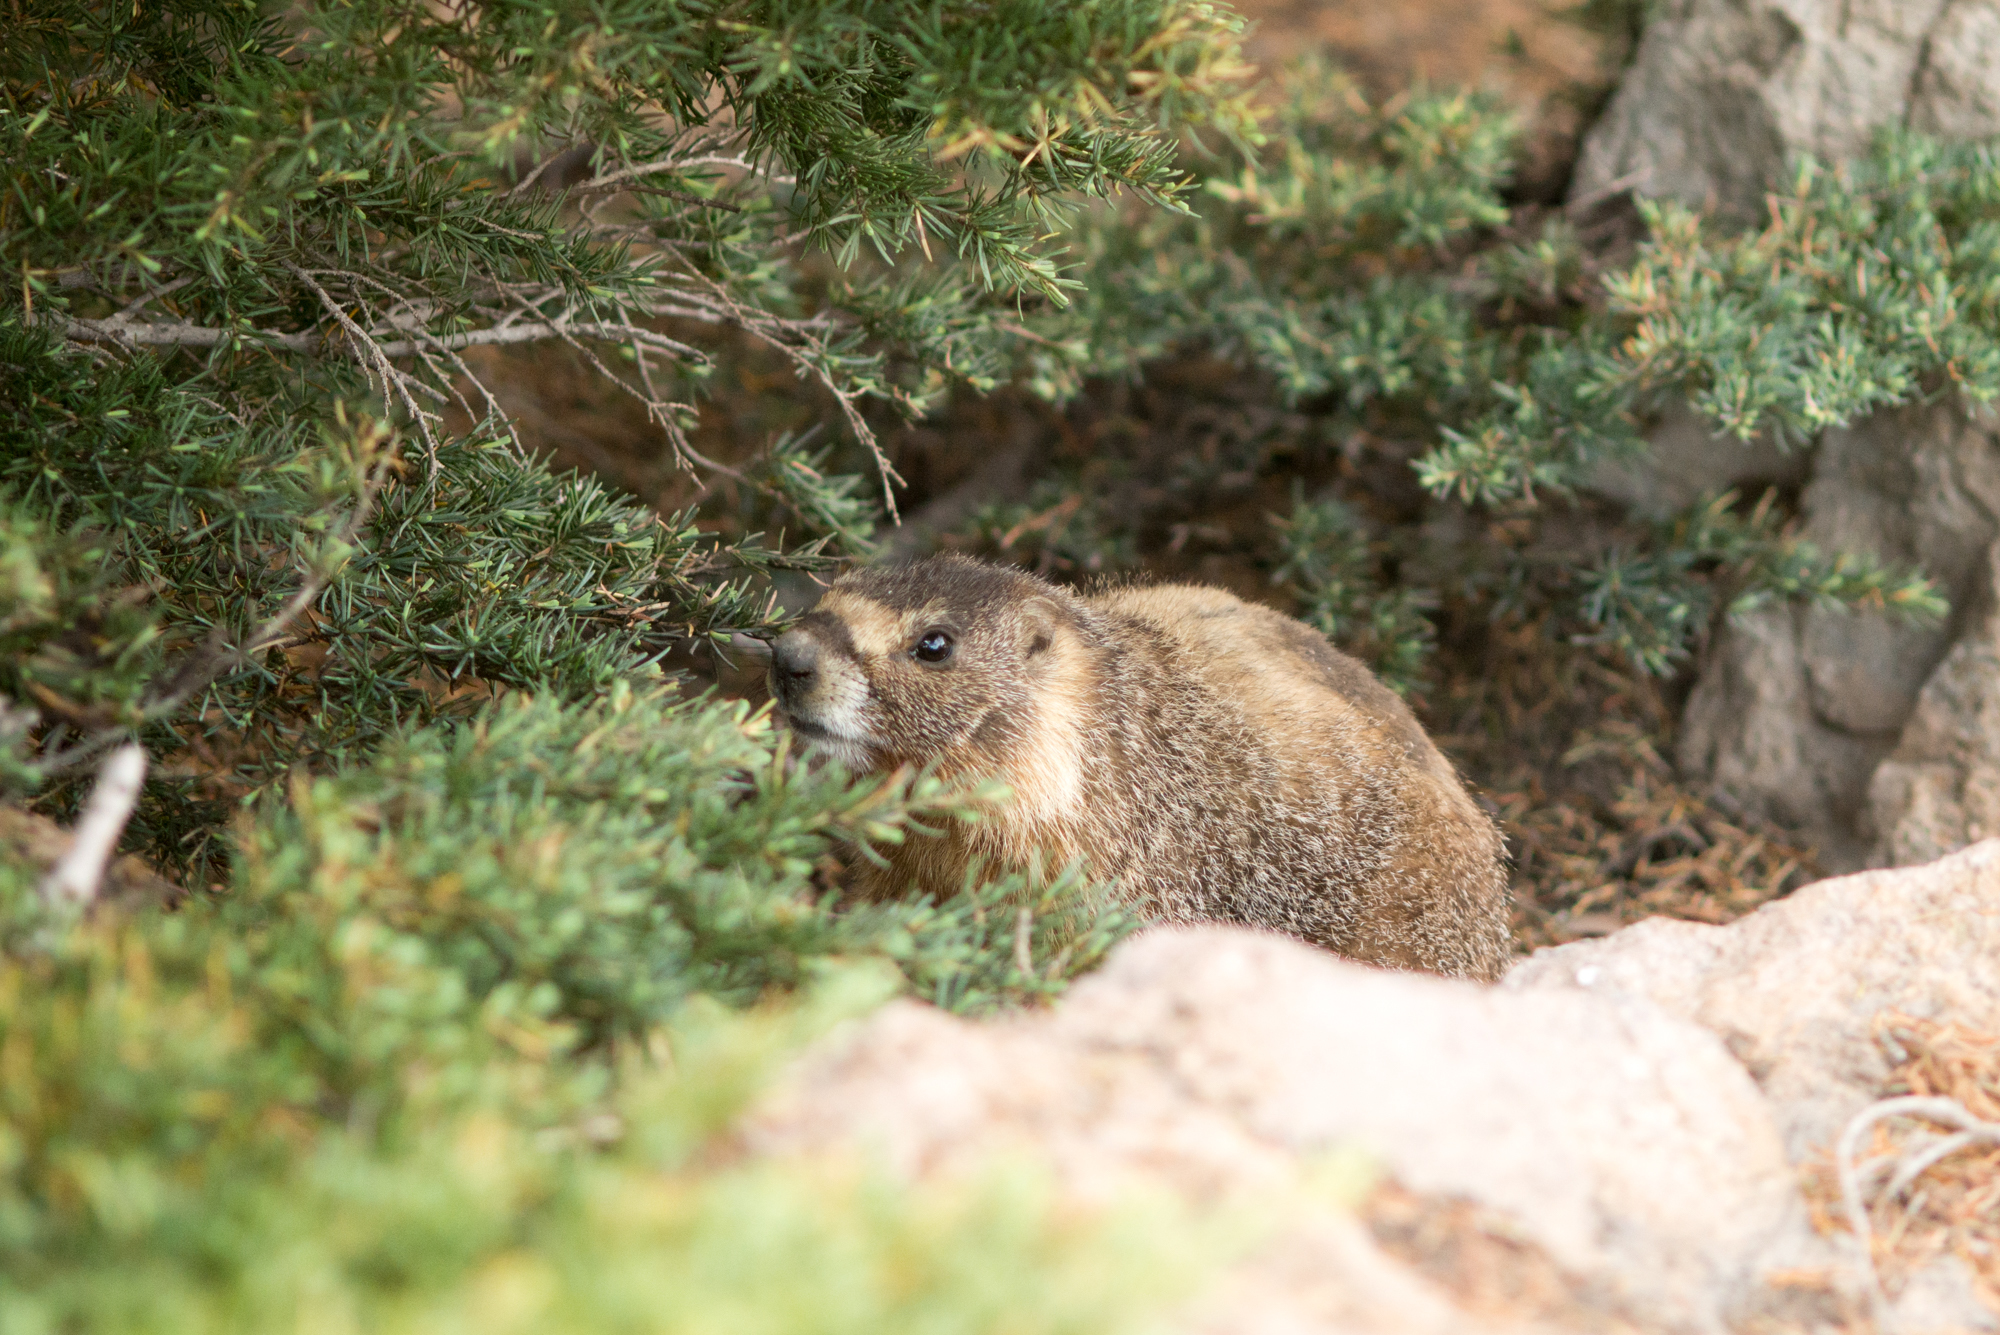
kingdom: Animalia
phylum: Chordata
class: Mammalia
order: Rodentia
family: Sciuridae
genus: Marmota
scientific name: Marmota flaviventris
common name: Yellow-bellied marmot
